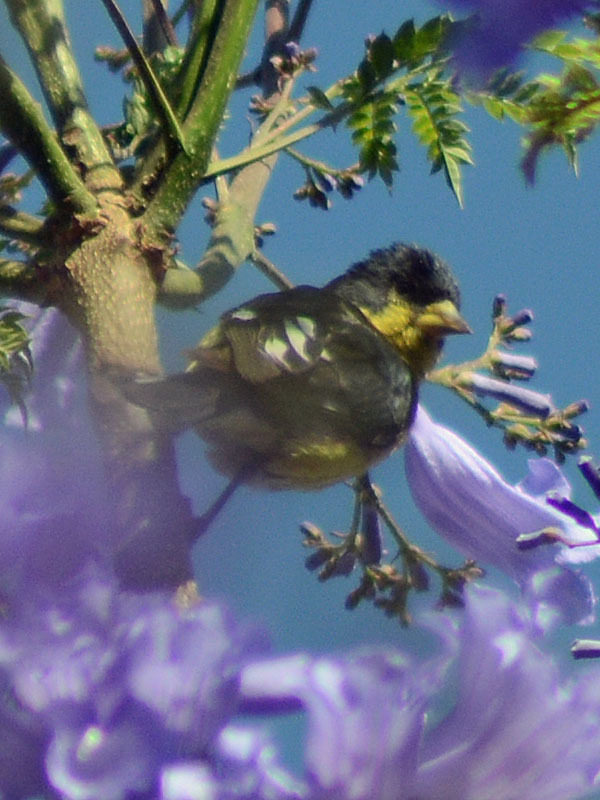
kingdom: Animalia
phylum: Chordata
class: Aves
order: Passeriformes
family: Fringillidae
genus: Spinus
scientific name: Spinus psaltria
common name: Lesser goldfinch
